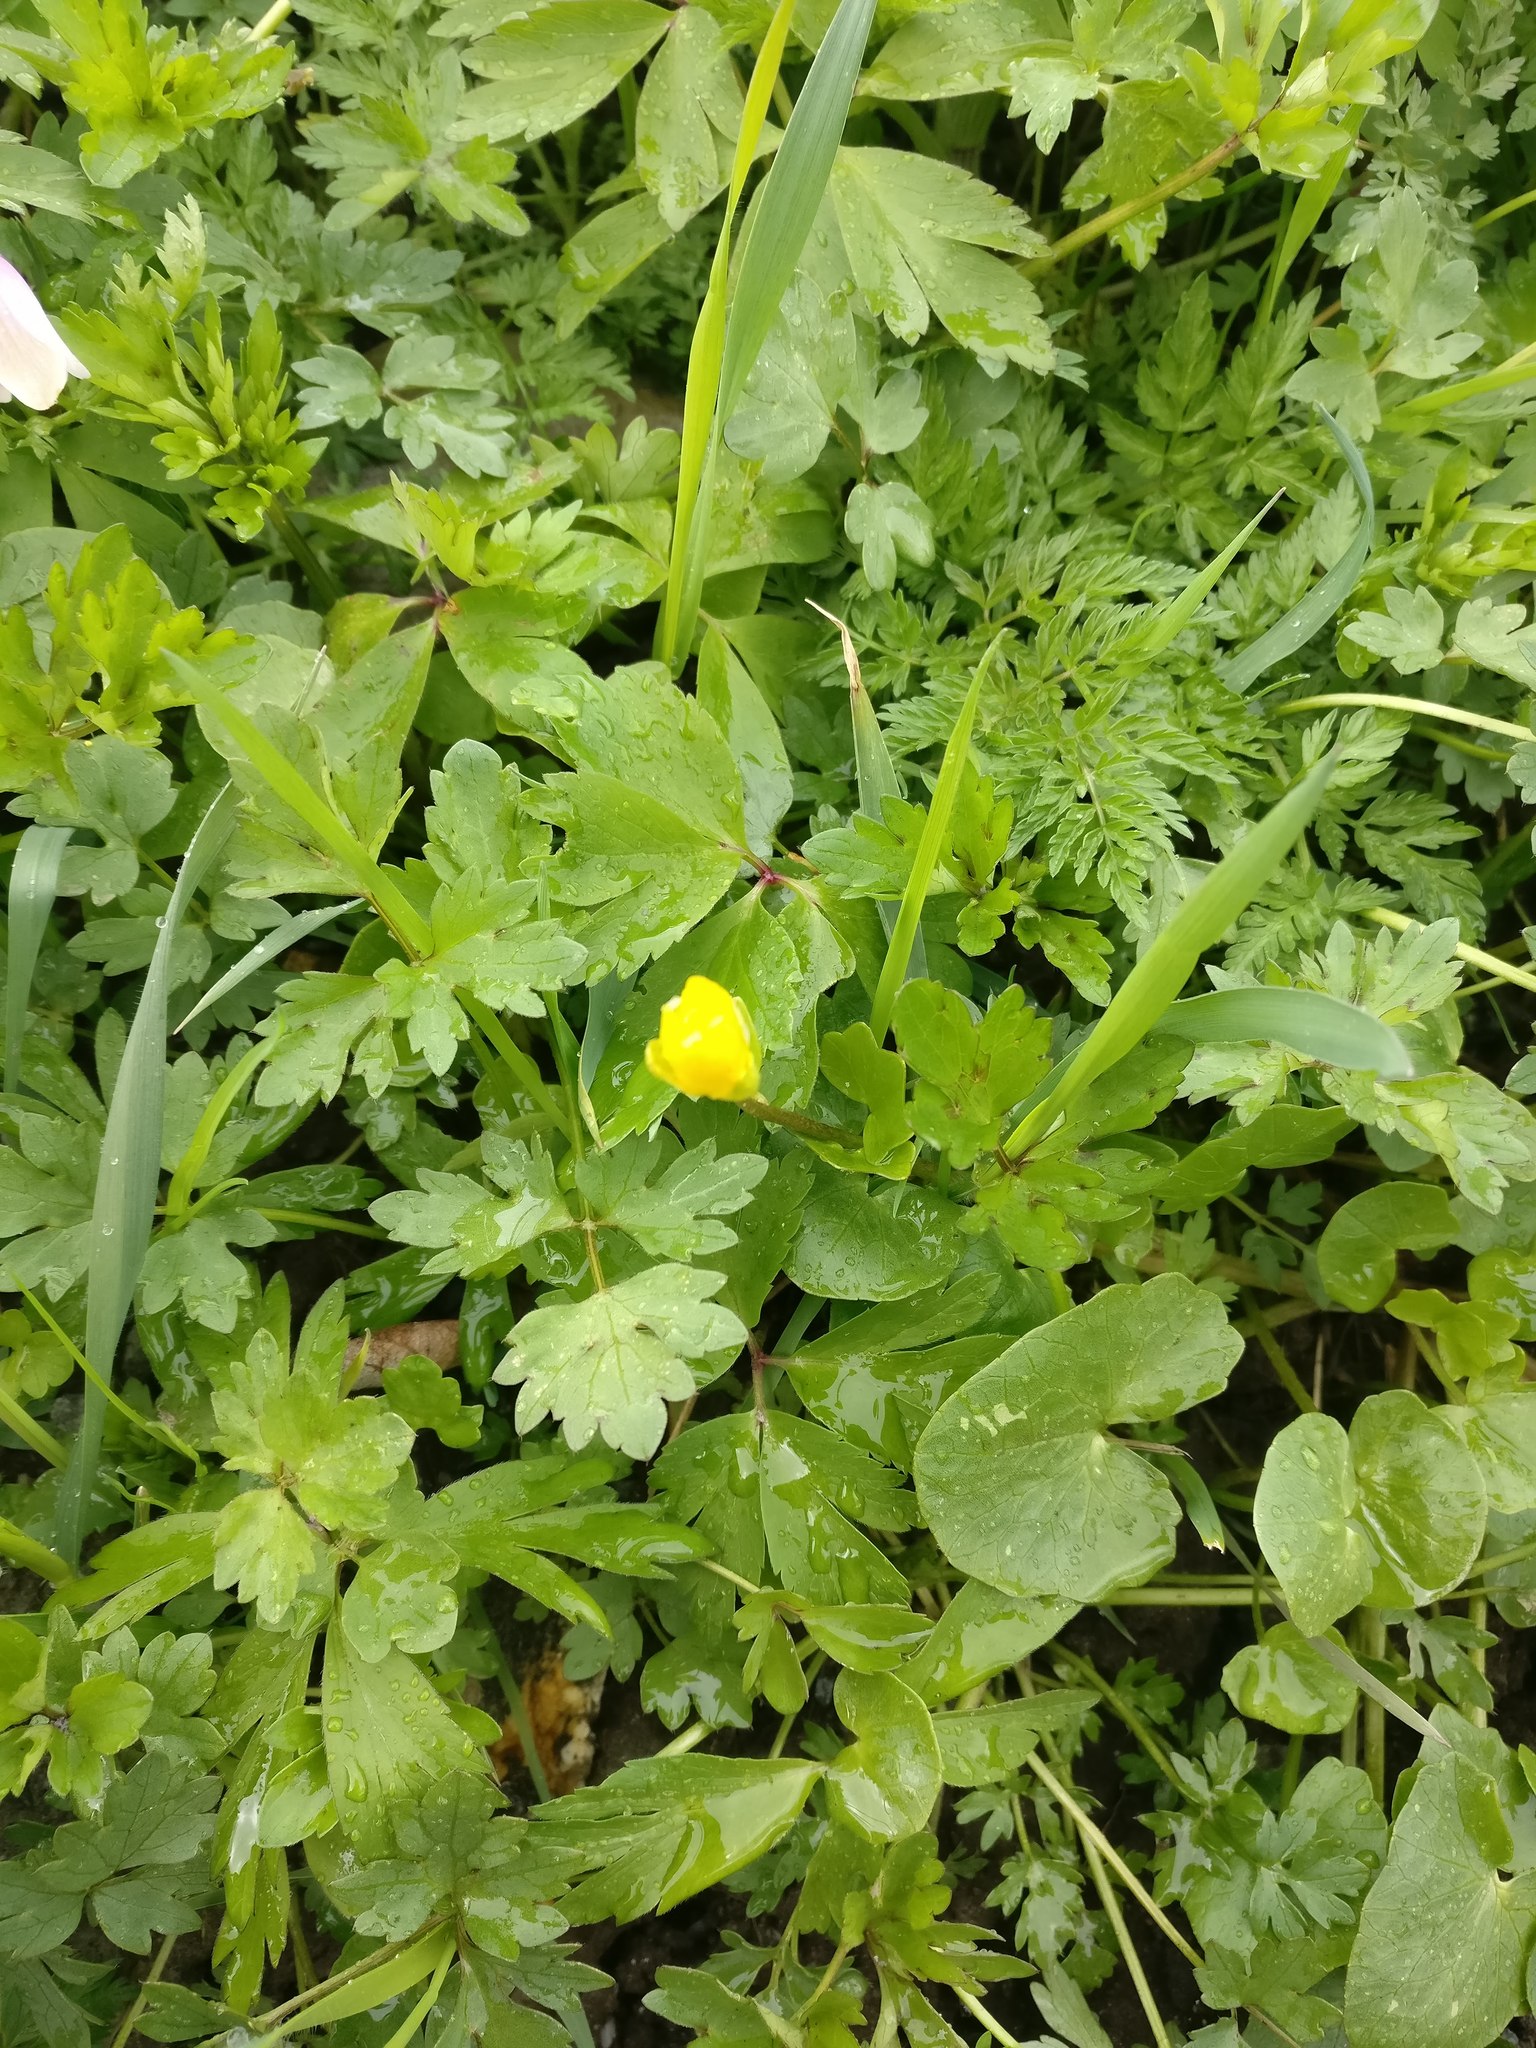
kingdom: Plantae
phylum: Tracheophyta
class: Magnoliopsida
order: Ranunculales
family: Ranunculaceae
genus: Ficaria
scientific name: Ficaria verna
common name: Lesser celandine
